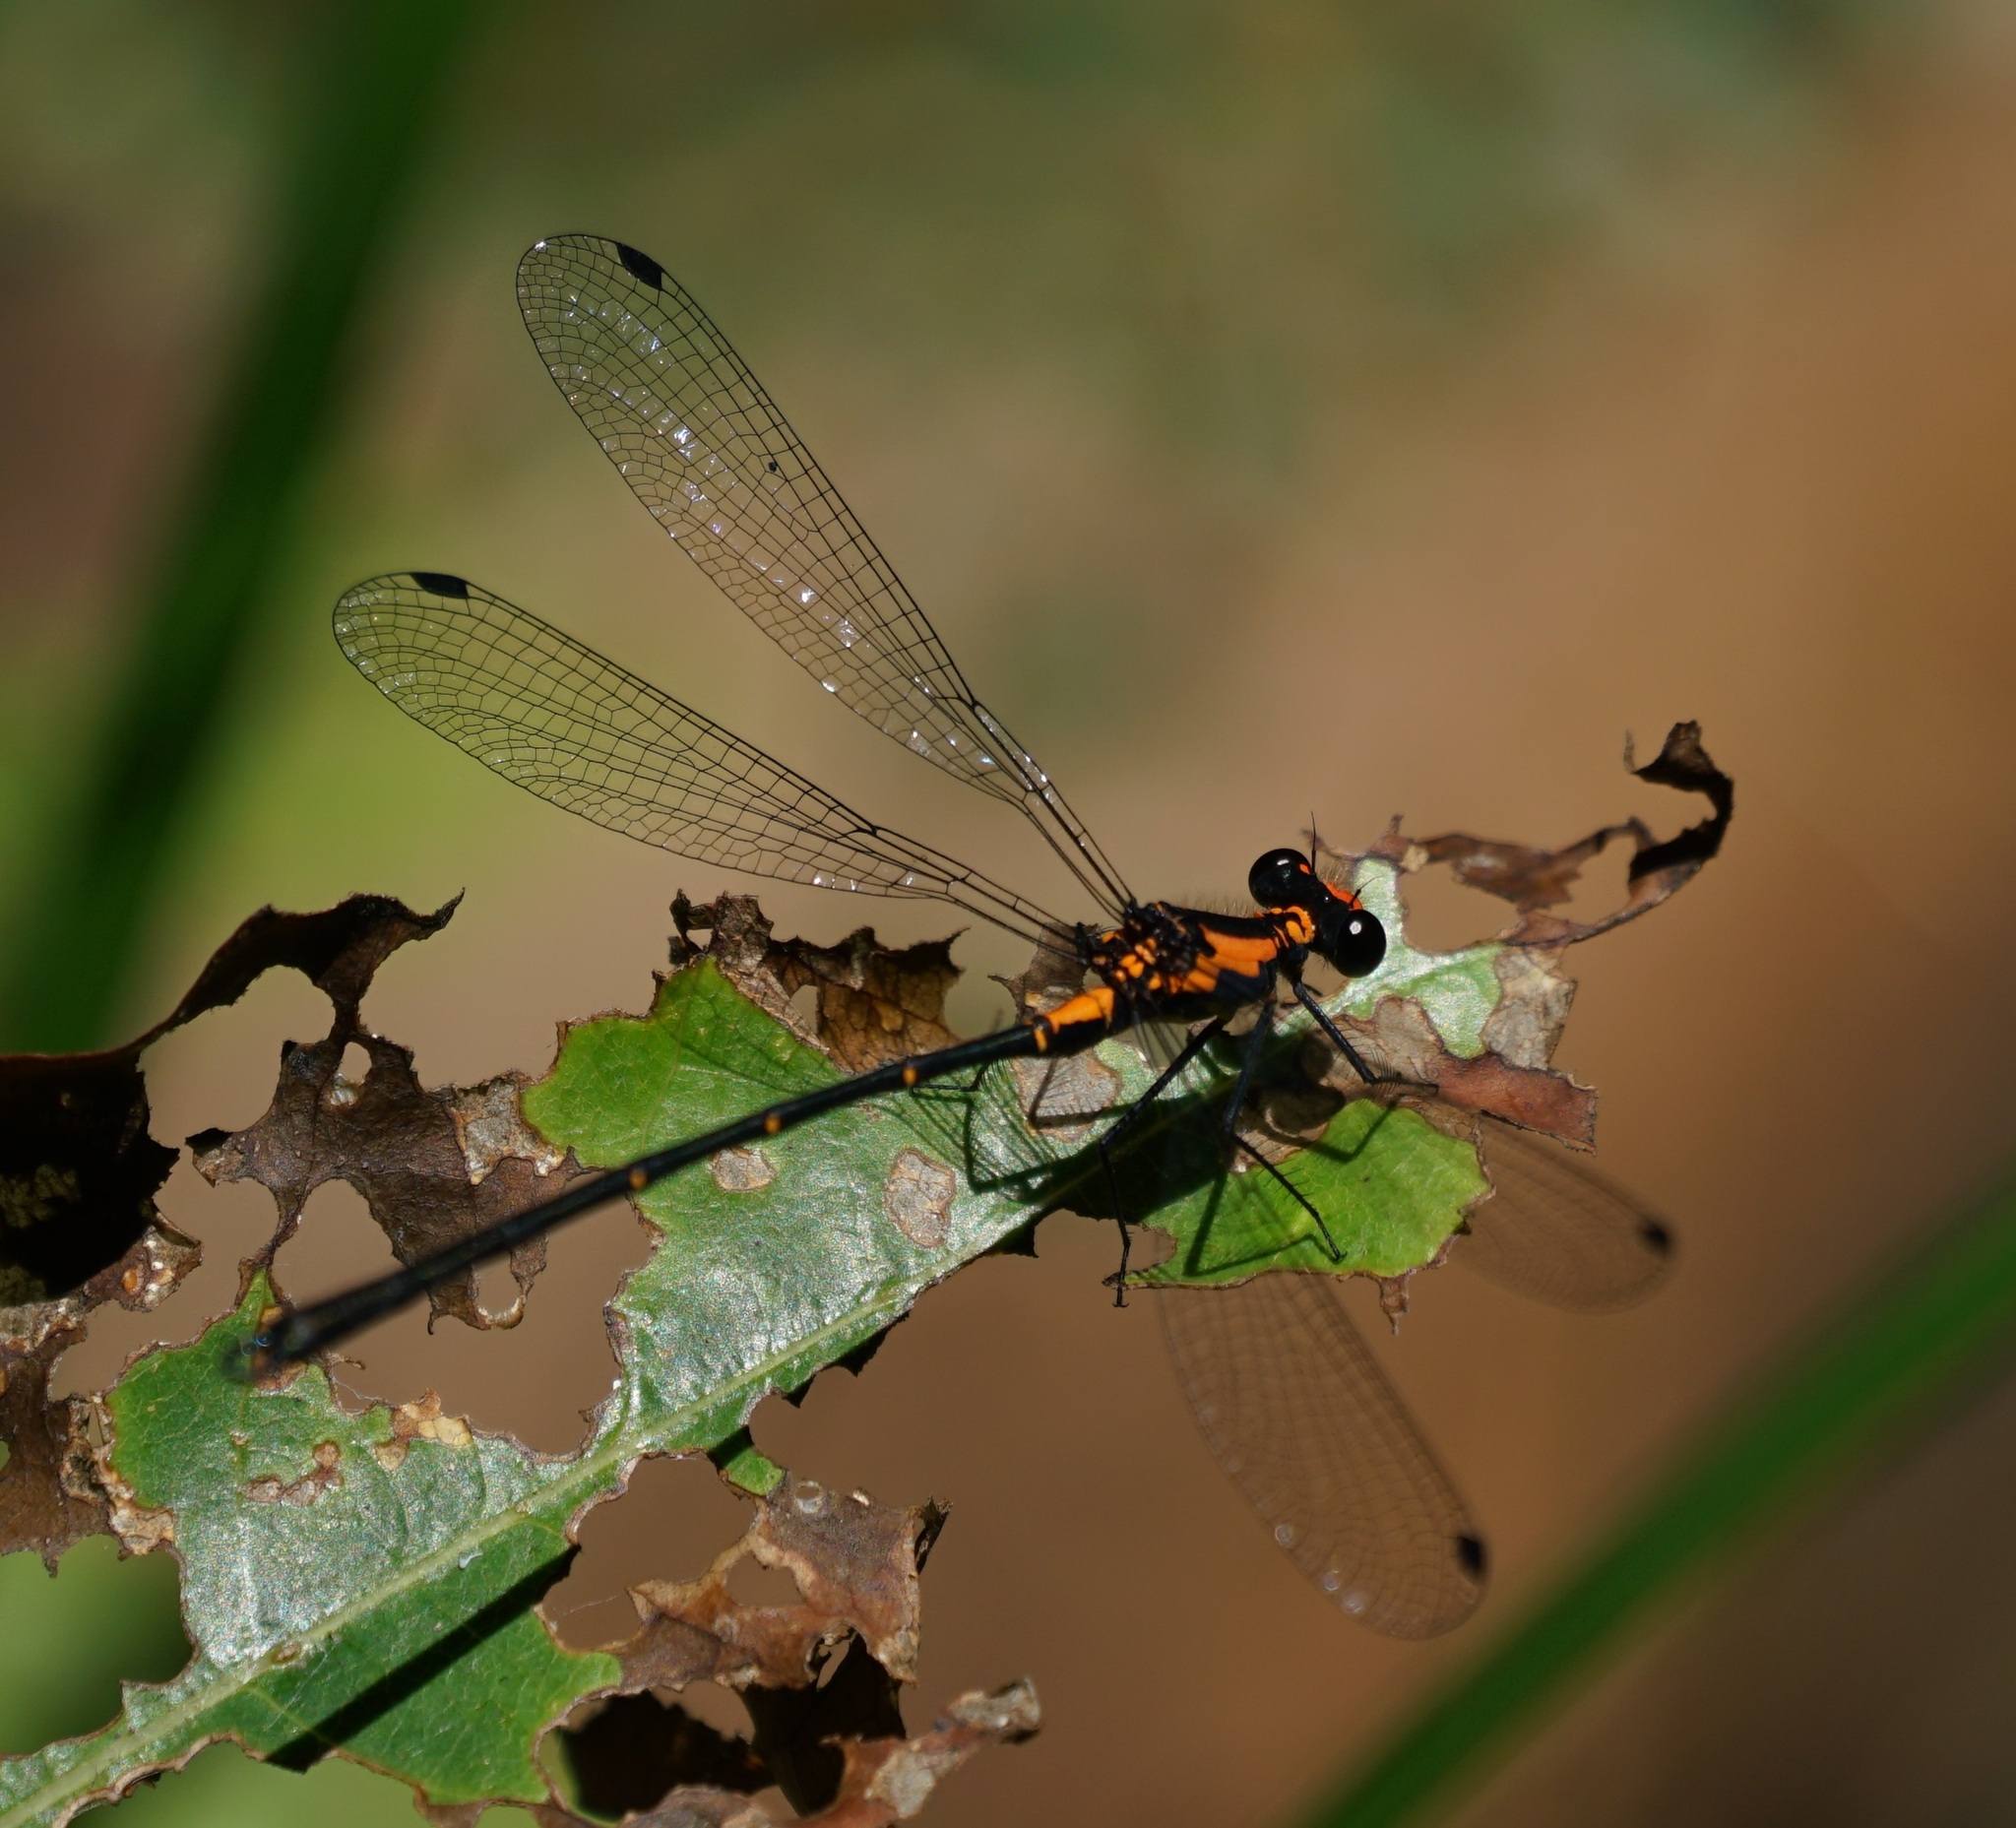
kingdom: Animalia
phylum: Arthropoda
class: Insecta
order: Odonata
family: Argiolestidae
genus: Austroargiolestes
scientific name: Austroargiolestes amabilis
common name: Flame flatwing
